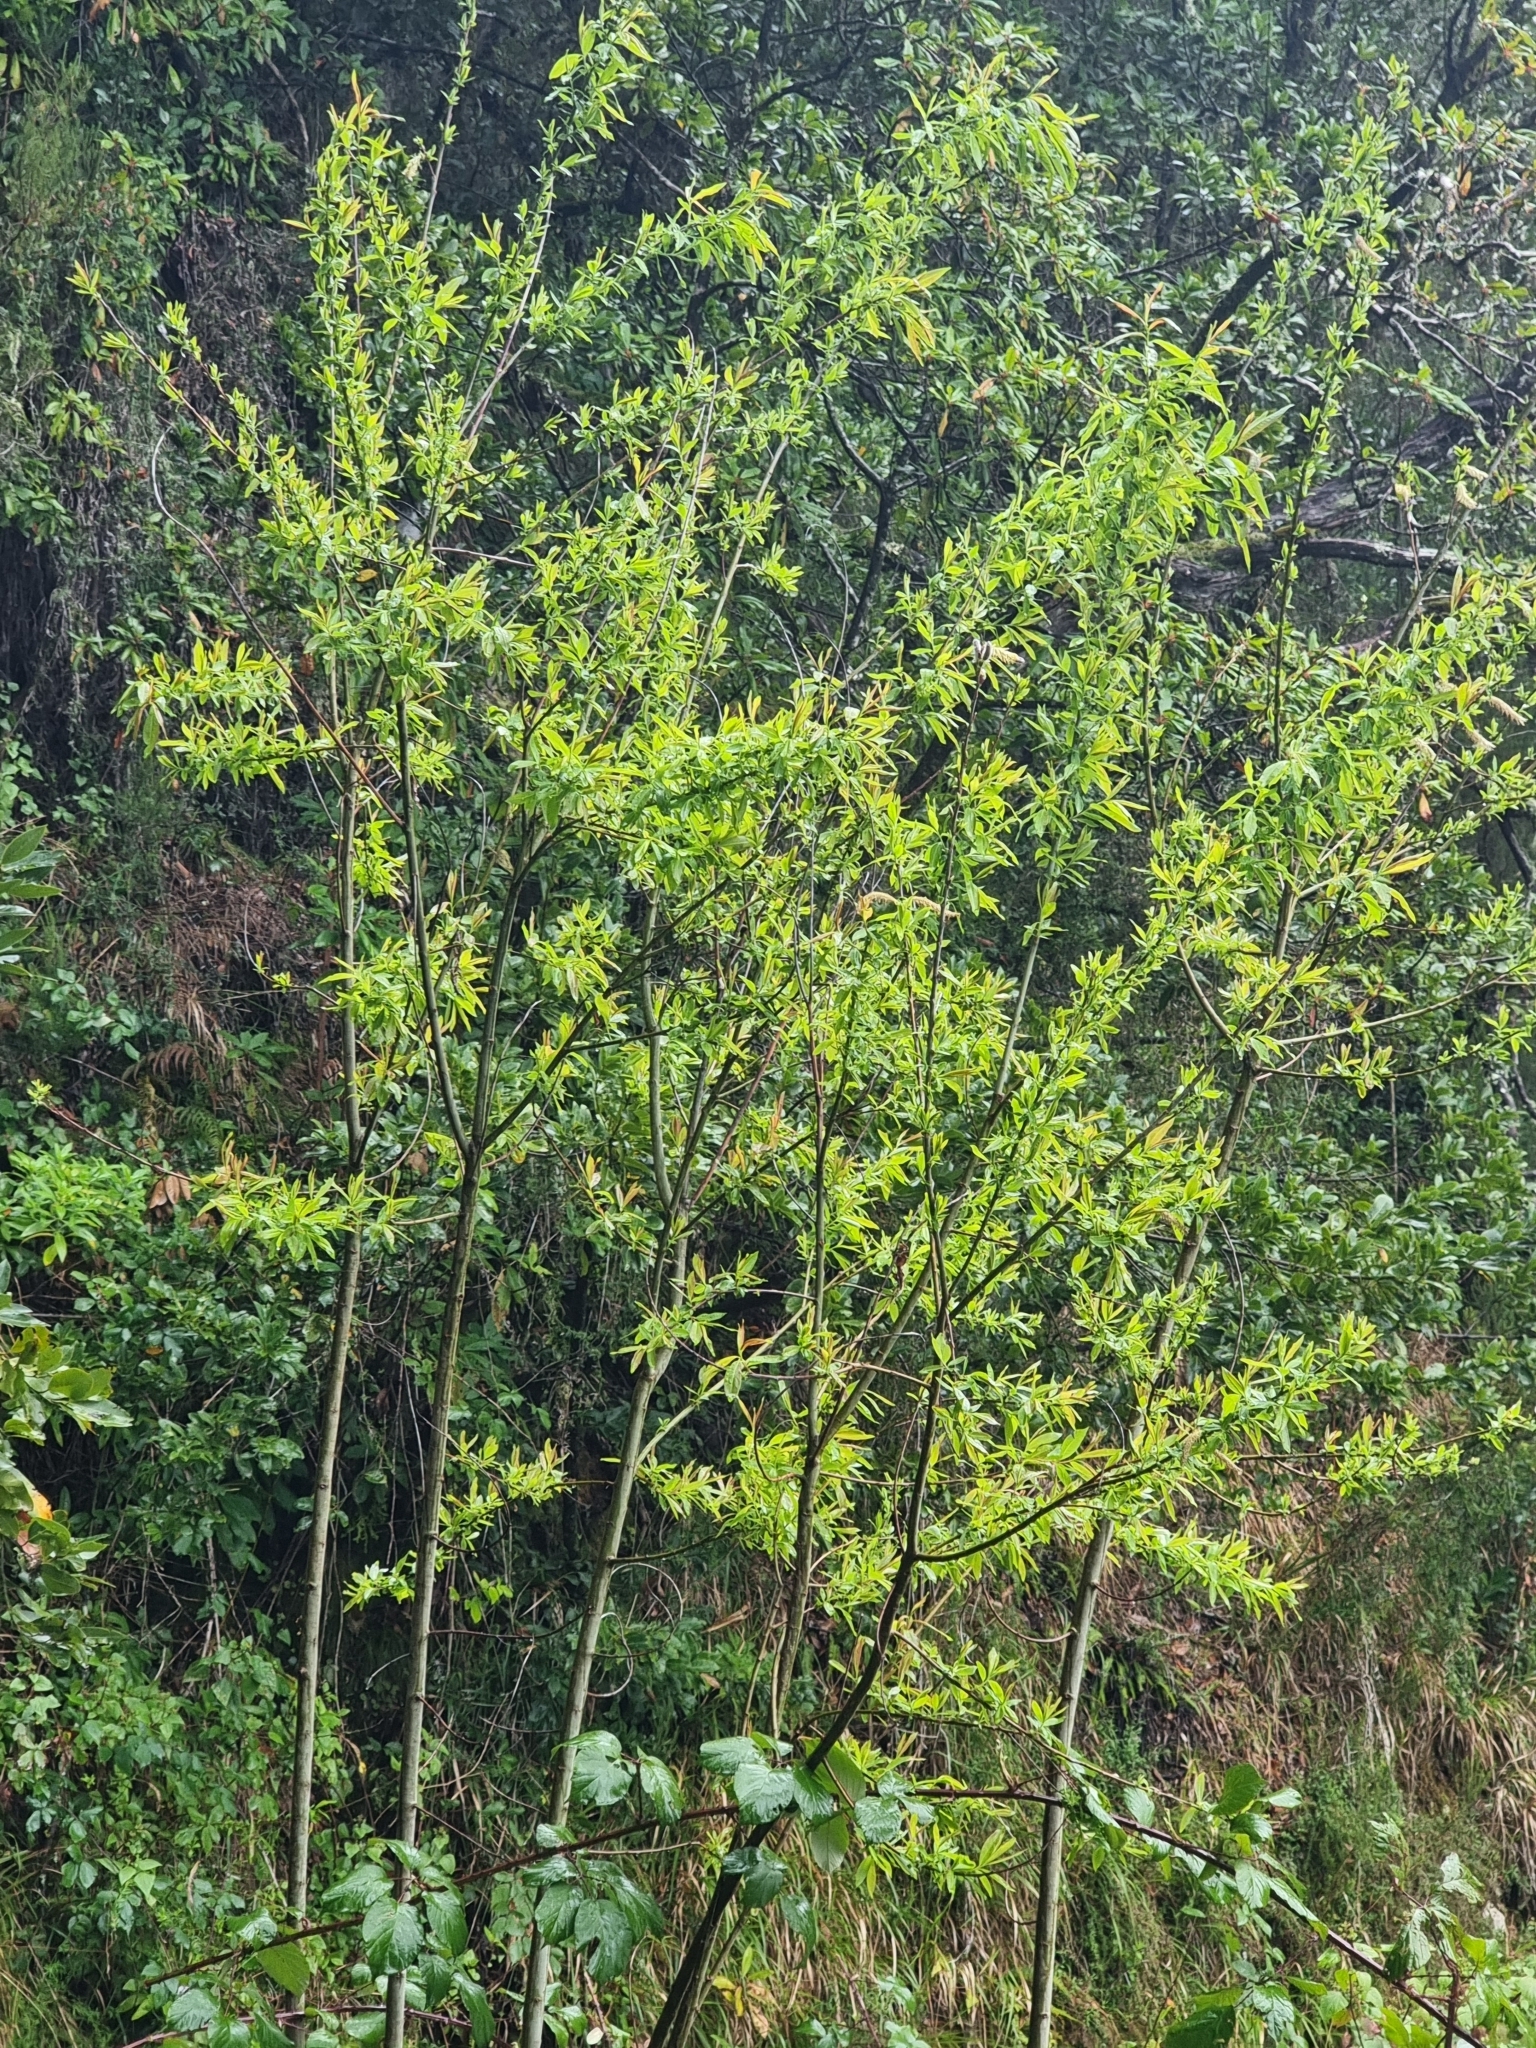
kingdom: Plantae
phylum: Tracheophyta
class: Magnoliopsida
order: Malpighiales
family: Salicaceae
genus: Salix
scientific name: Salix canariensis
